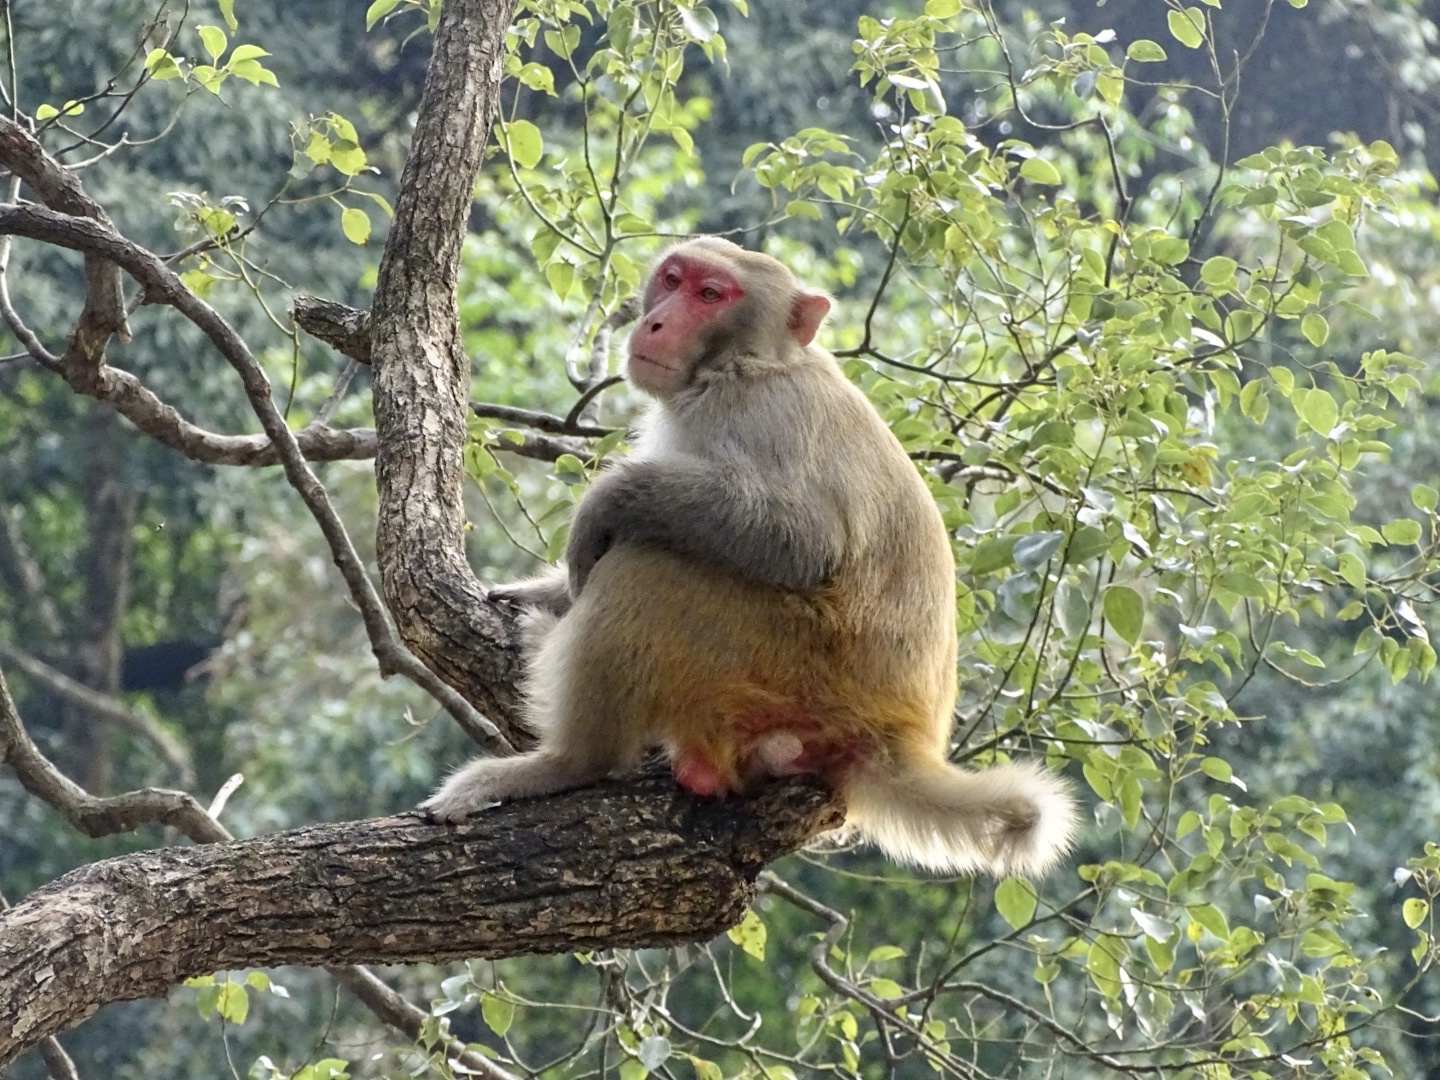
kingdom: Animalia
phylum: Chordata
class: Mammalia
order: Primates
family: Cercopithecidae
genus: Macaca
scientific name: Macaca mulatta
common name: Rhesus monkey
